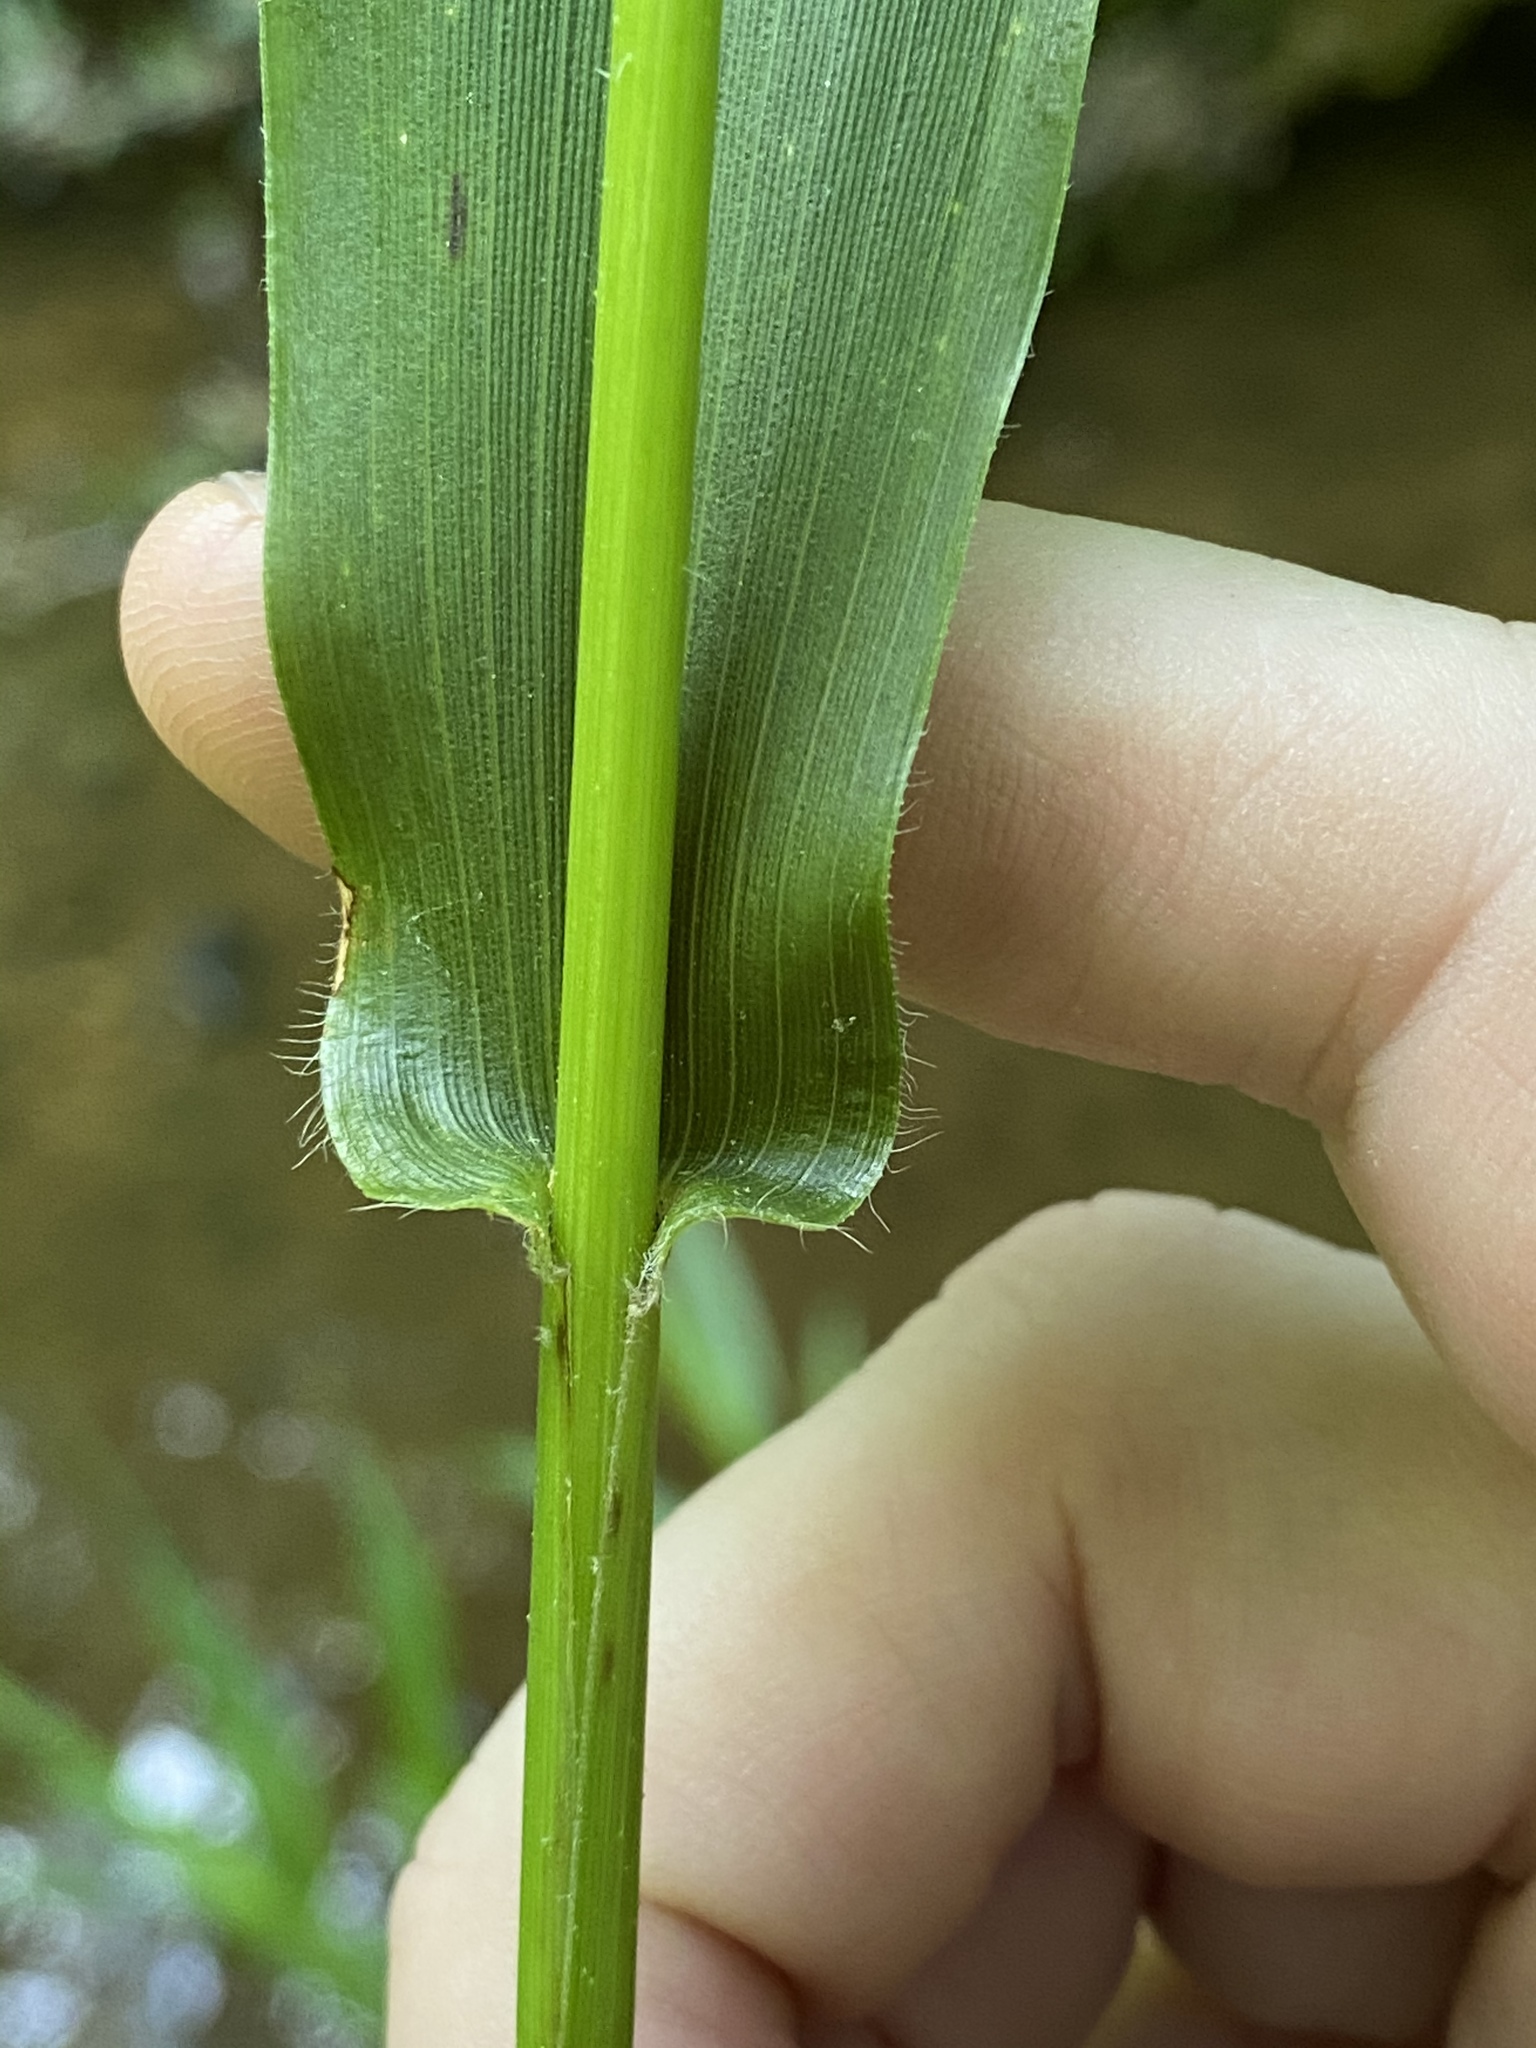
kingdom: Plantae
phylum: Tracheophyta
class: Liliopsida
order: Poales
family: Poaceae
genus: Dichanthelium
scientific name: Dichanthelium clandestinum
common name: Deer-tongue grass
